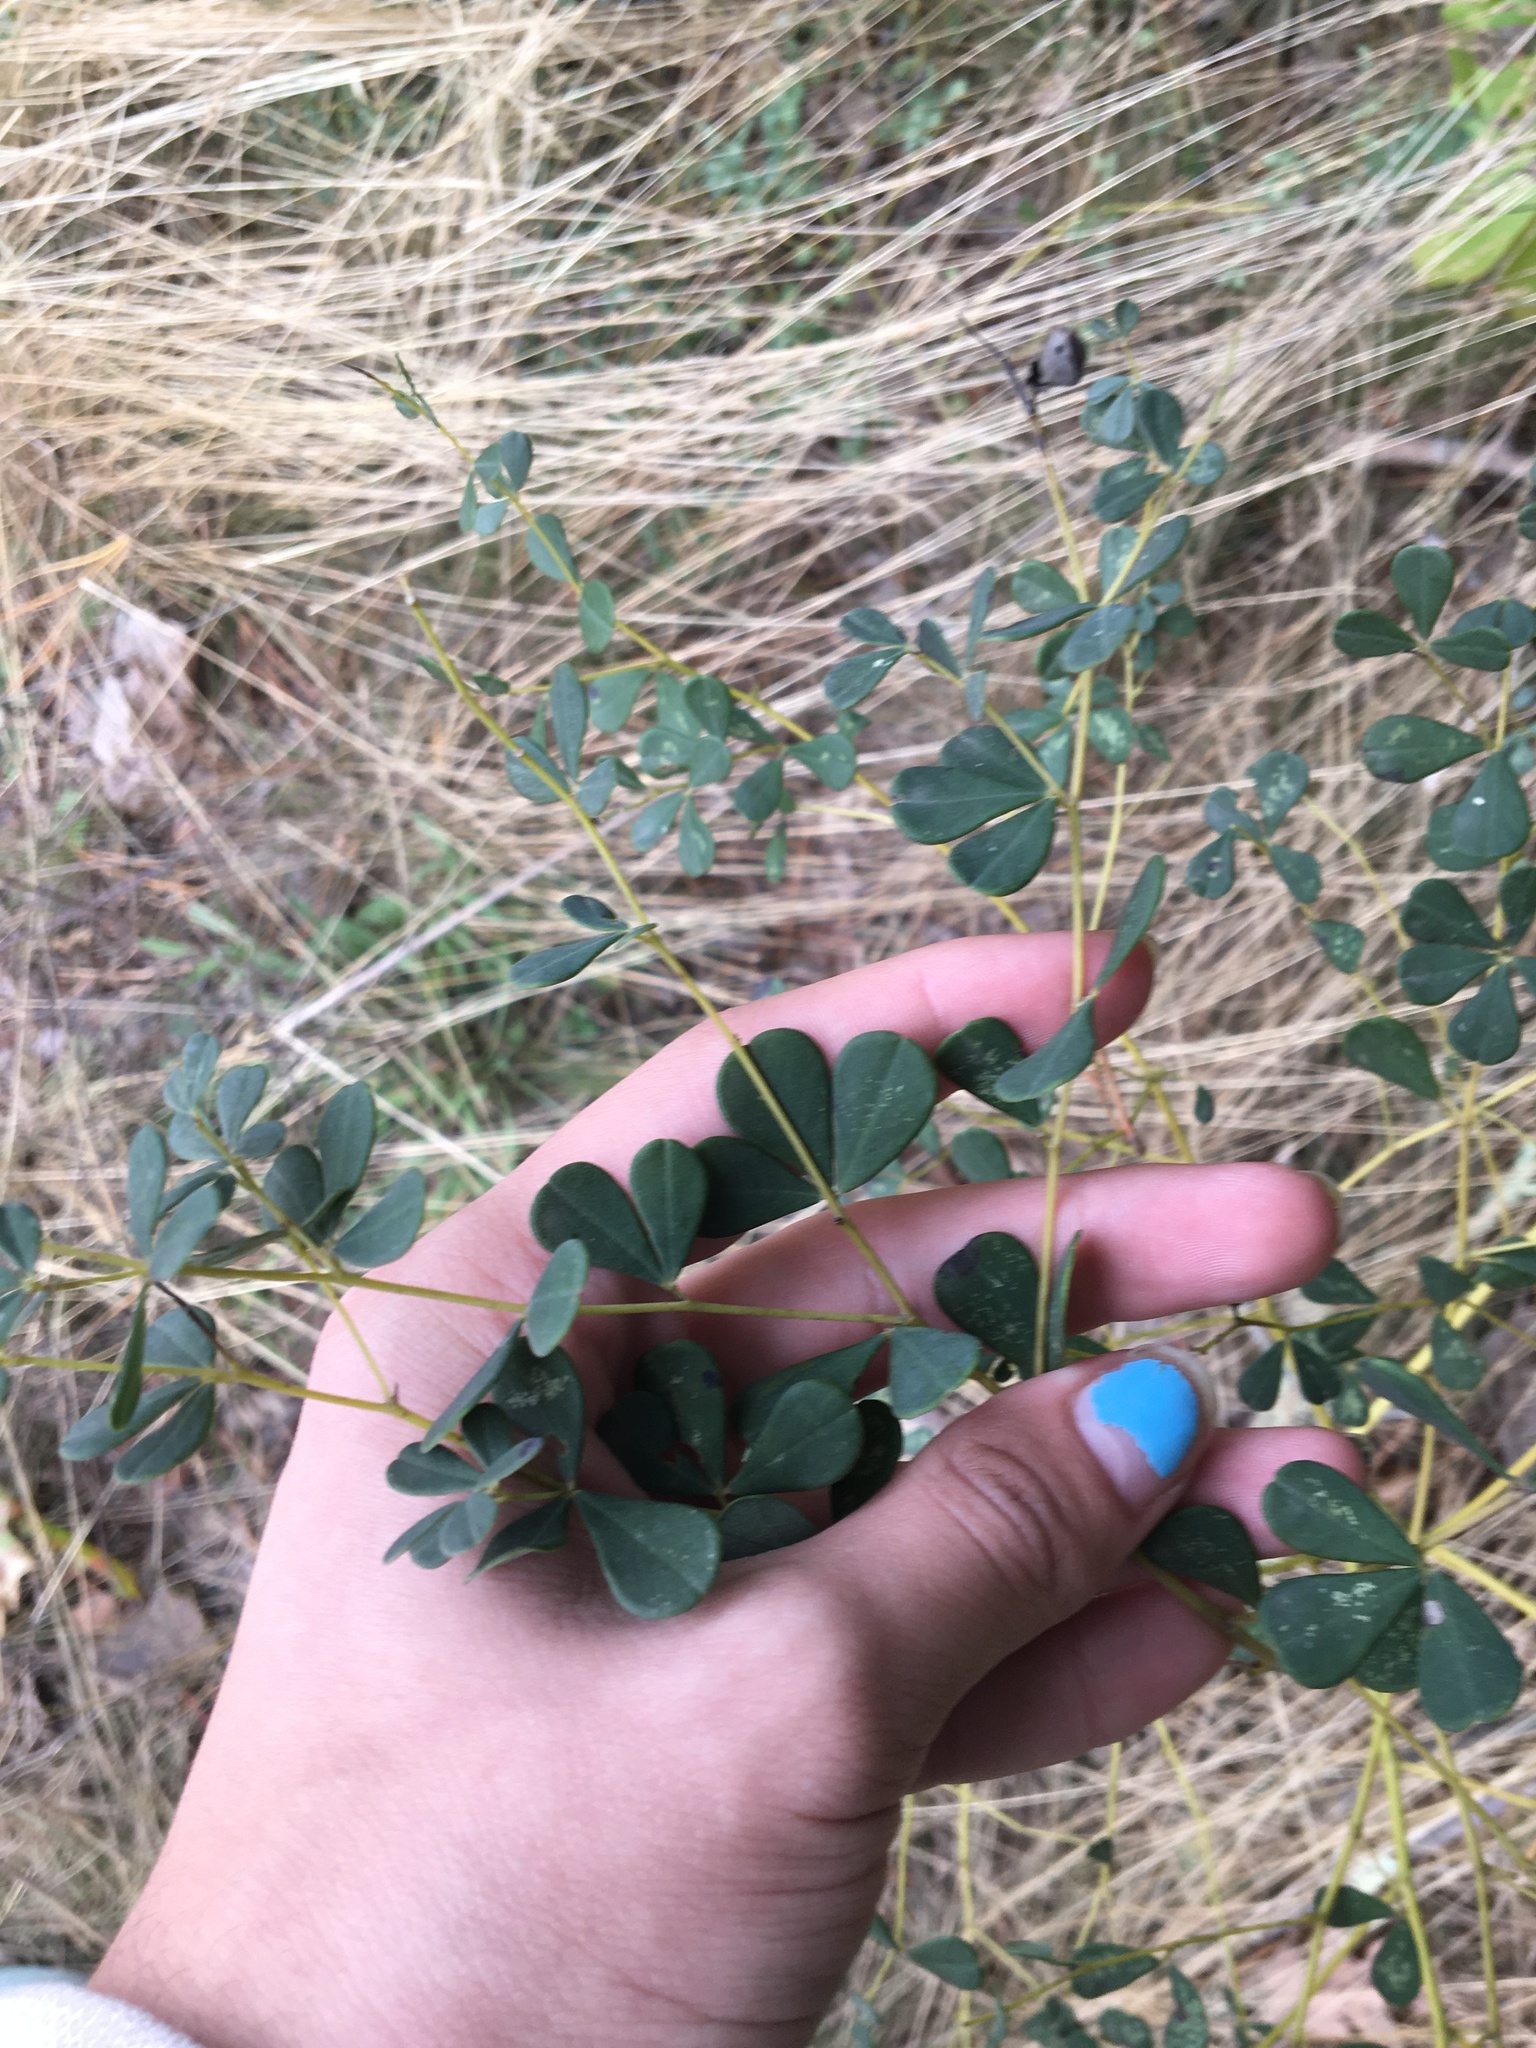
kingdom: Plantae
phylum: Tracheophyta
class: Magnoliopsida
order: Fabales
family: Fabaceae
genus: Baptisia
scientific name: Baptisia tinctoria
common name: Wild indigo
